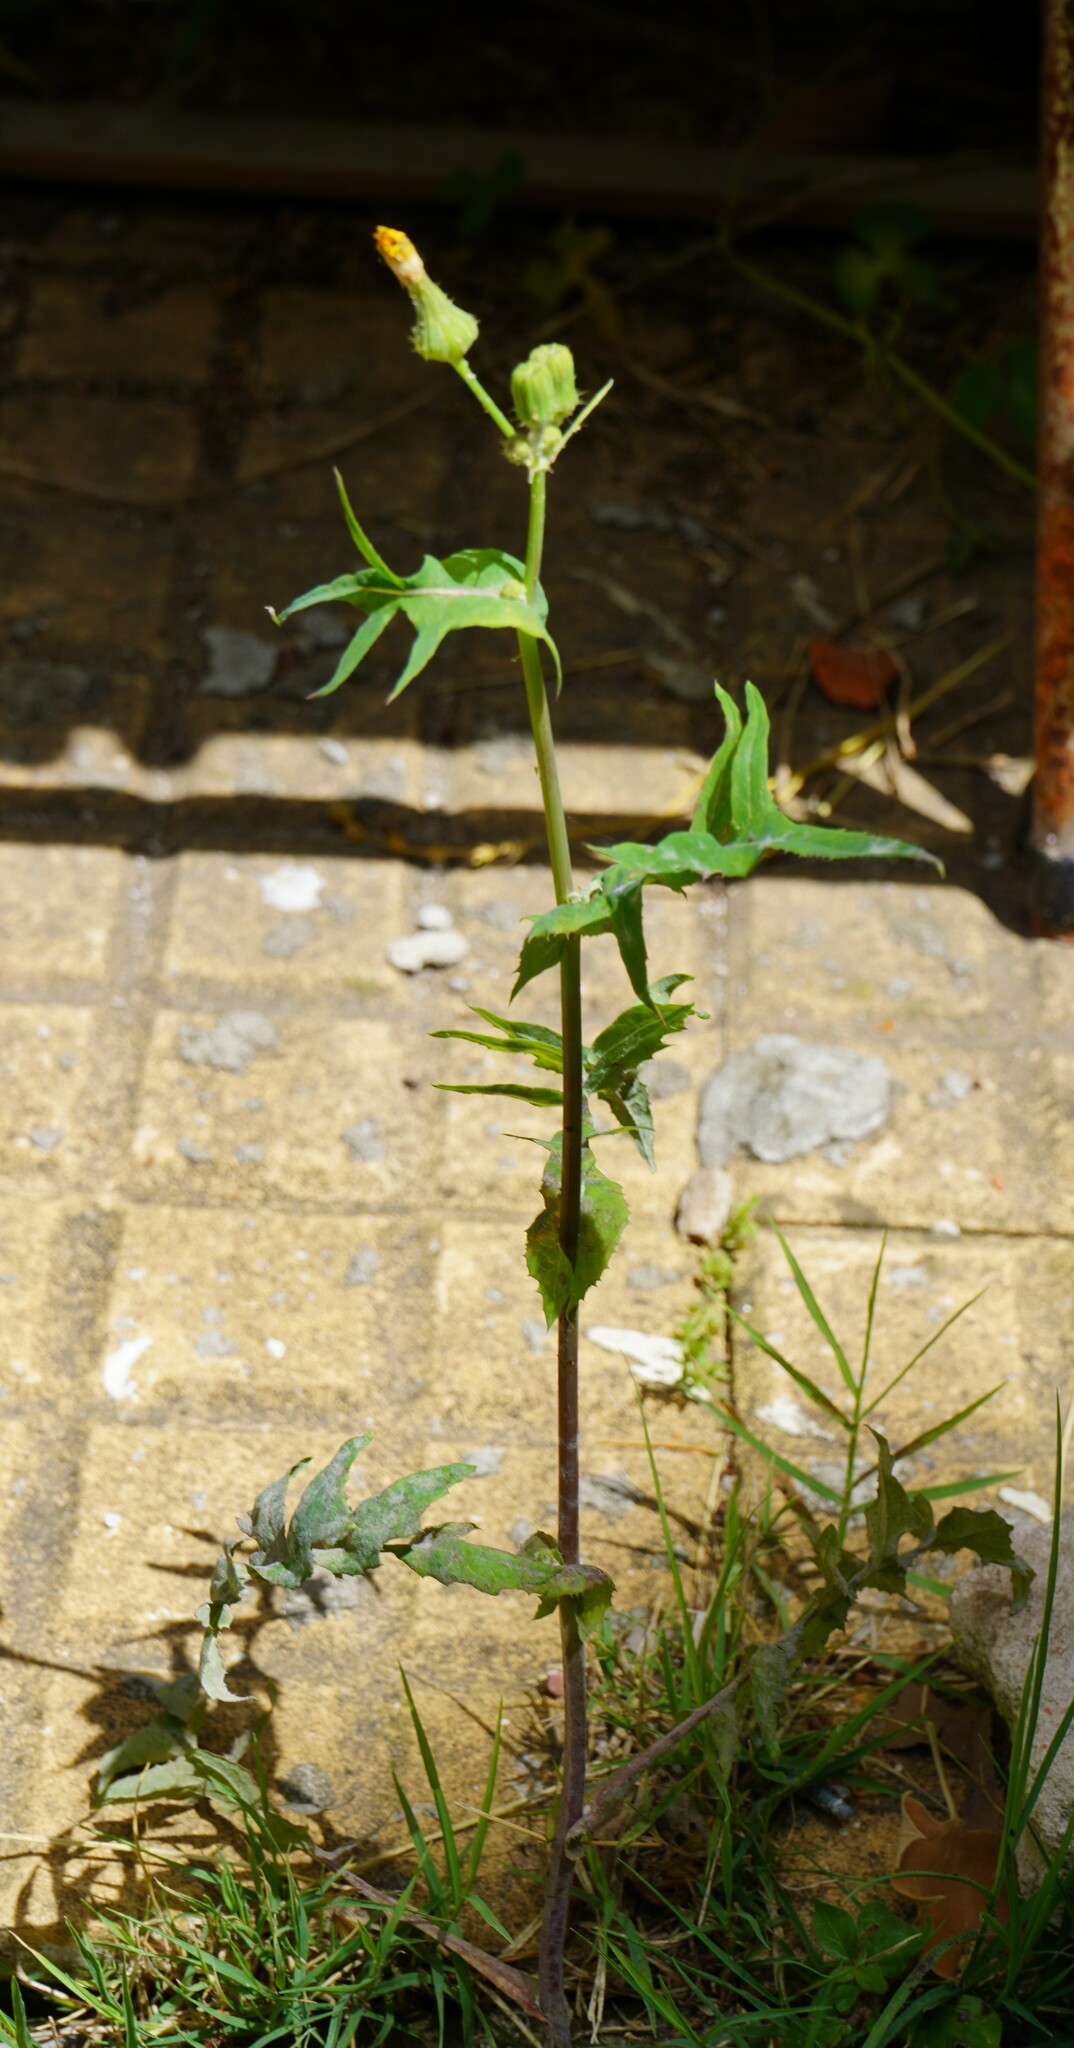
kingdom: Plantae
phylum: Tracheophyta
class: Magnoliopsida
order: Asterales
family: Asteraceae
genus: Sonchus
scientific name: Sonchus oleraceus
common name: Common sowthistle
